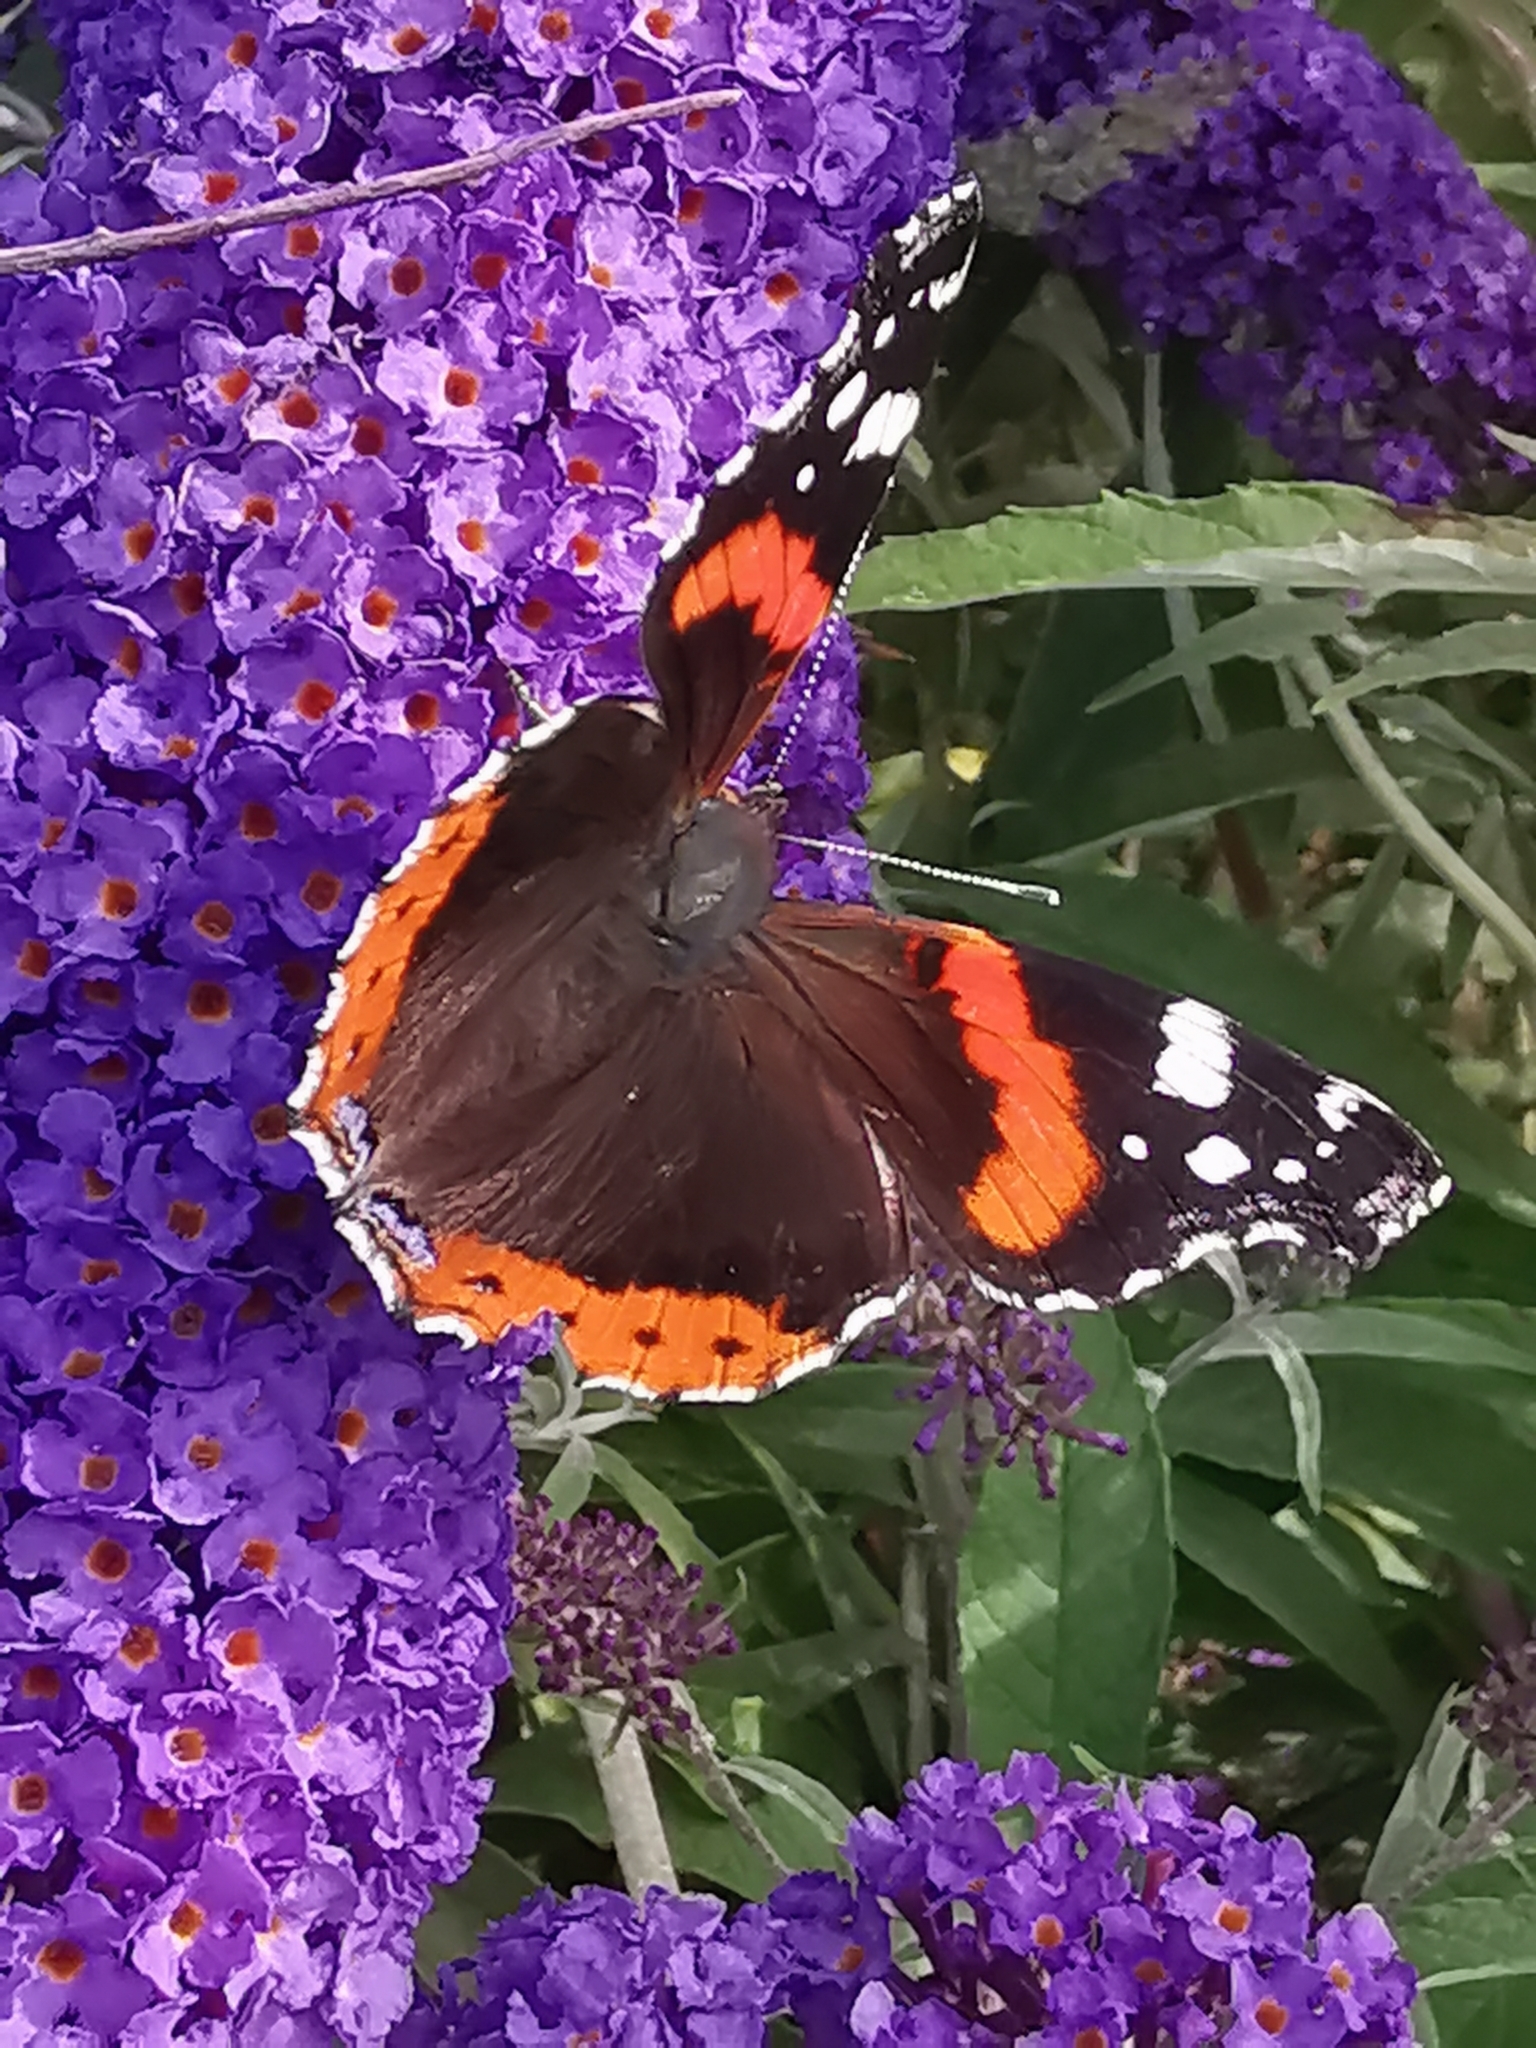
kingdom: Animalia
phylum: Arthropoda
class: Insecta
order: Lepidoptera
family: Nymphalidae
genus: Vanessa
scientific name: Vanessa atalanta
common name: Red admiral
